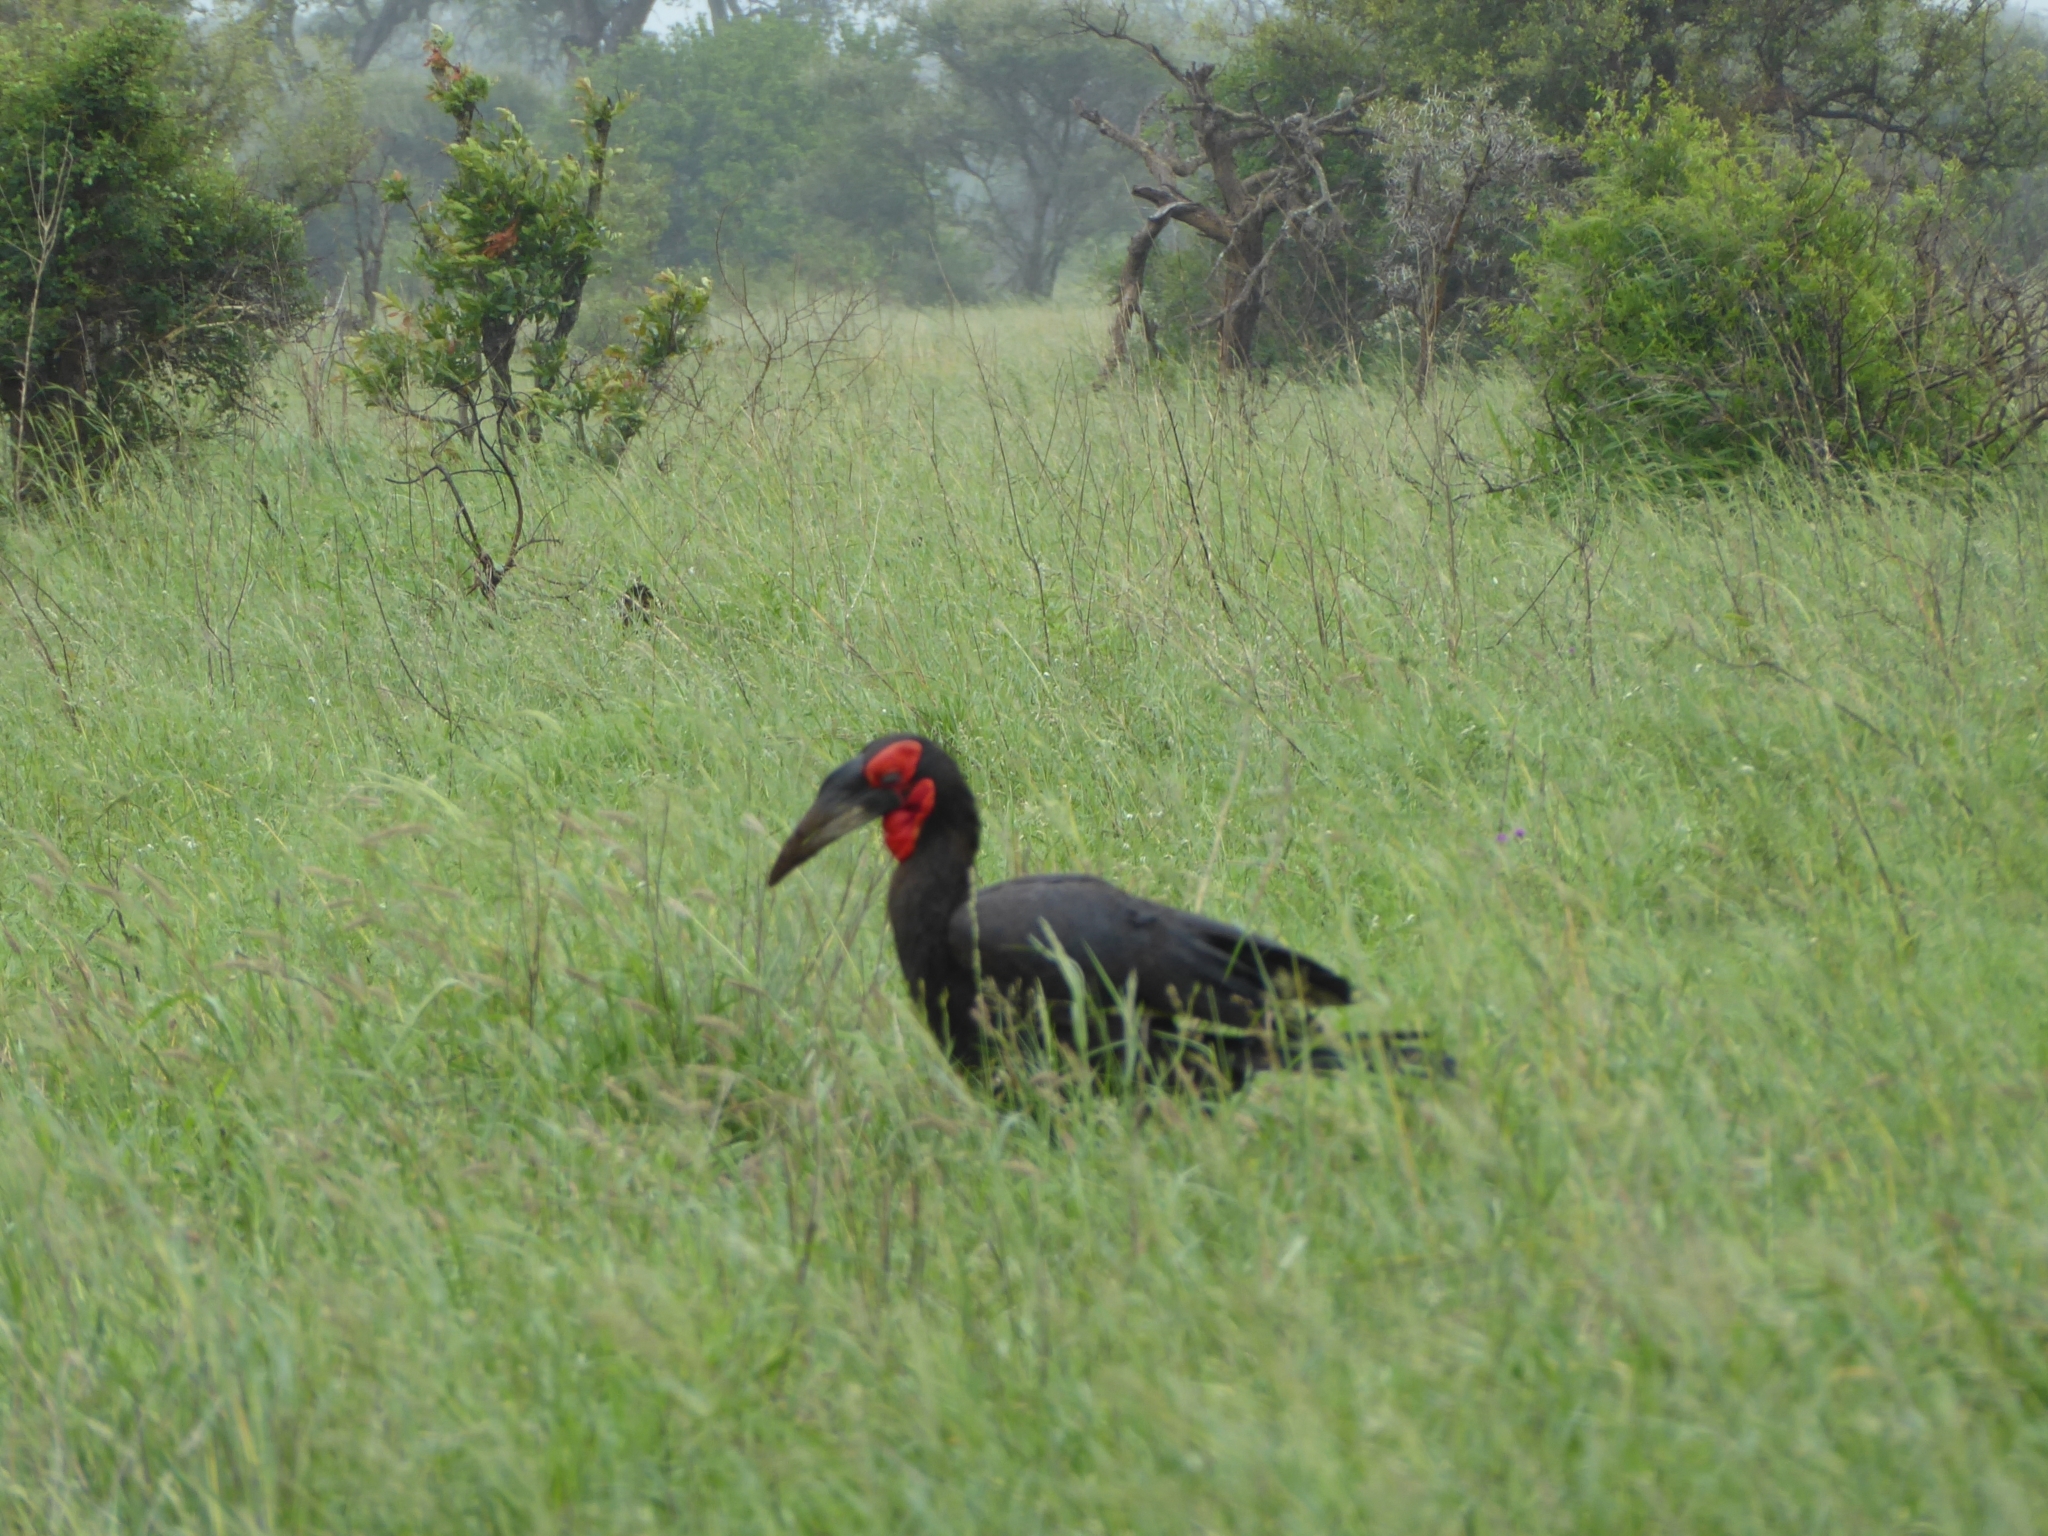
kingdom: Animalia
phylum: Chordata
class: Aves
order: Bucerotiformes
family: Bucorvidae
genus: Bucorvus
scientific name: Bucorvus leadbeateri
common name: Southern ground-hornbill
